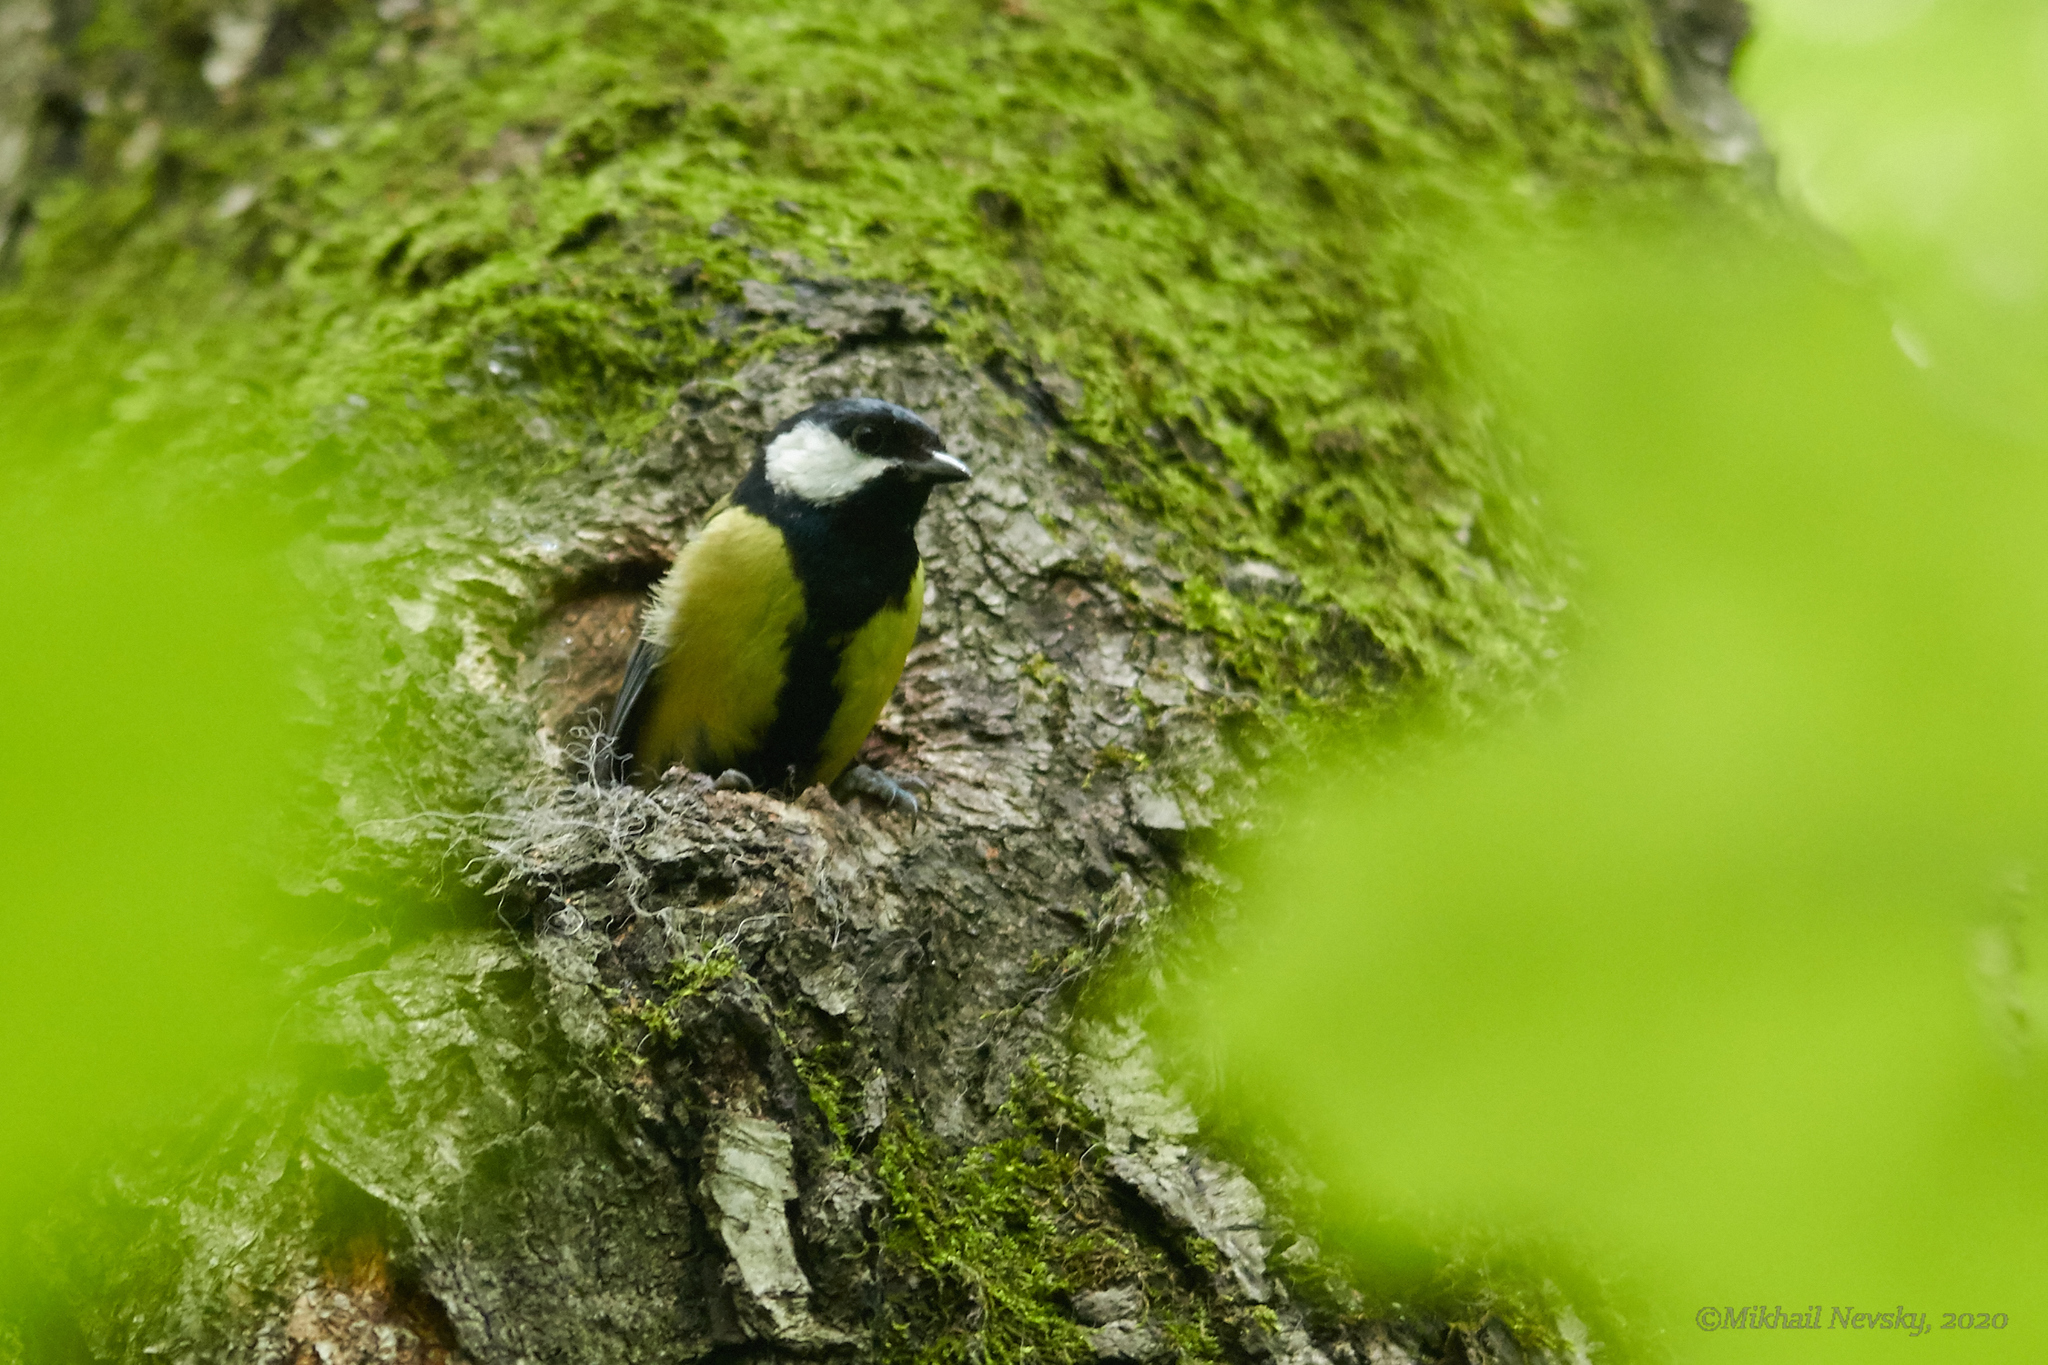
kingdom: Animalia
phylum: Chordata
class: Aves
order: Passeriformes
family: Paridae
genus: Parus
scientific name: Parus major
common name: Great tit
